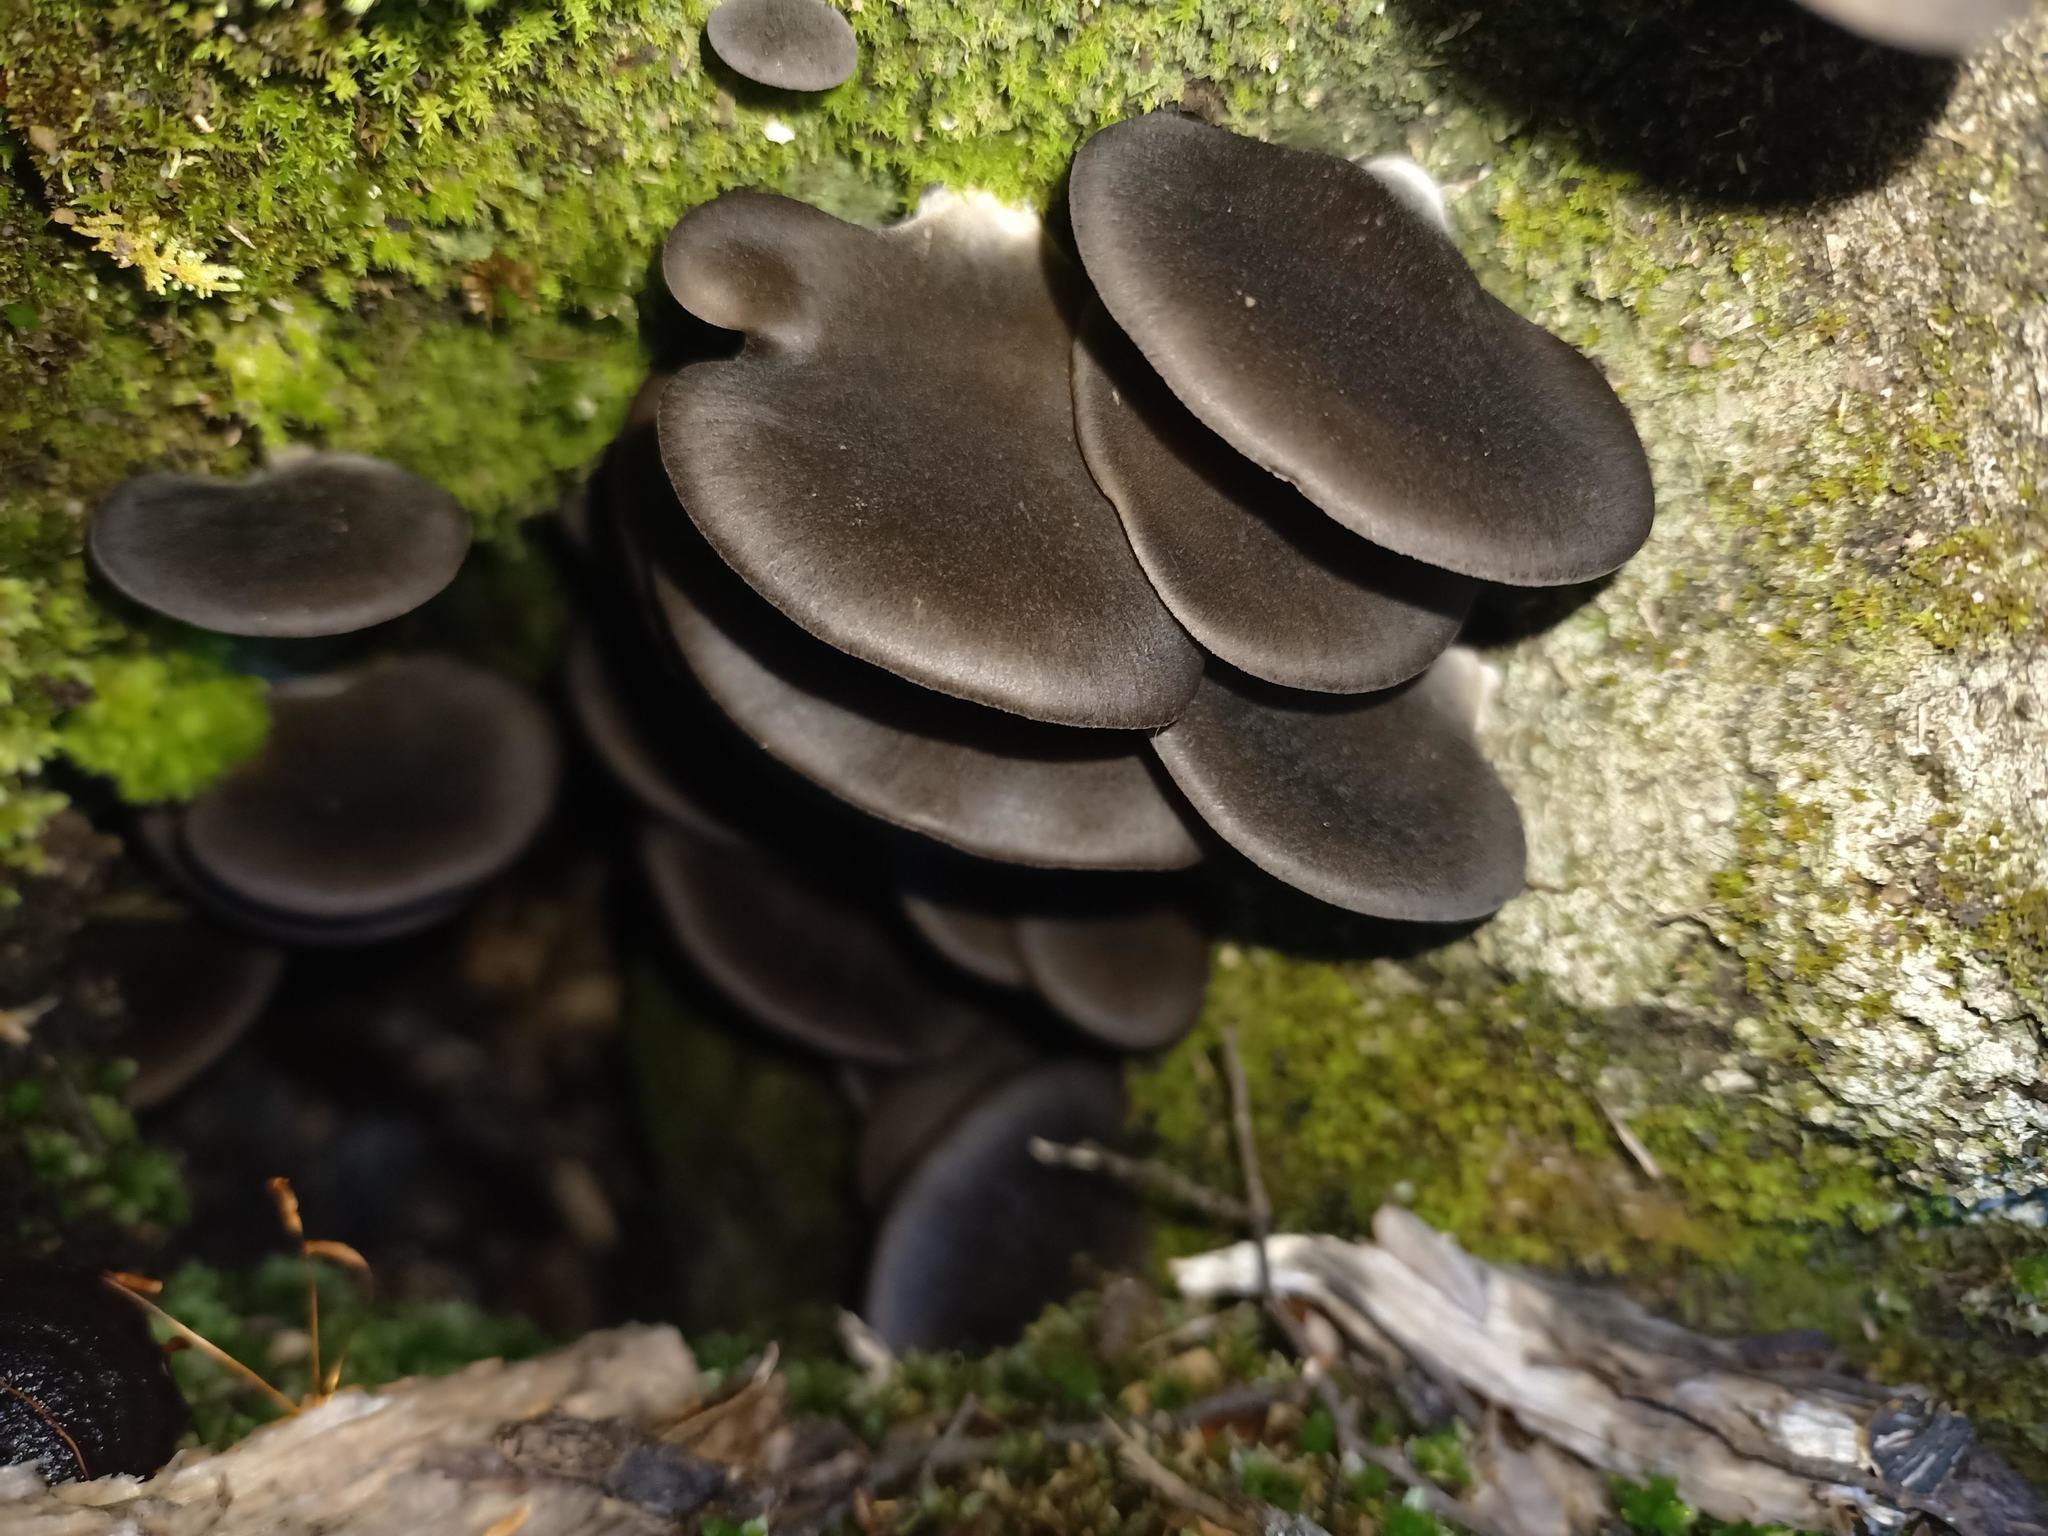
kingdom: Fungi
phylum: Basidiomycota
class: Agaricomycetes
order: Agaricales
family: Pleurotaceae
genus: Pleurotus
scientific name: Pleurotus purpureo-olivaceus
